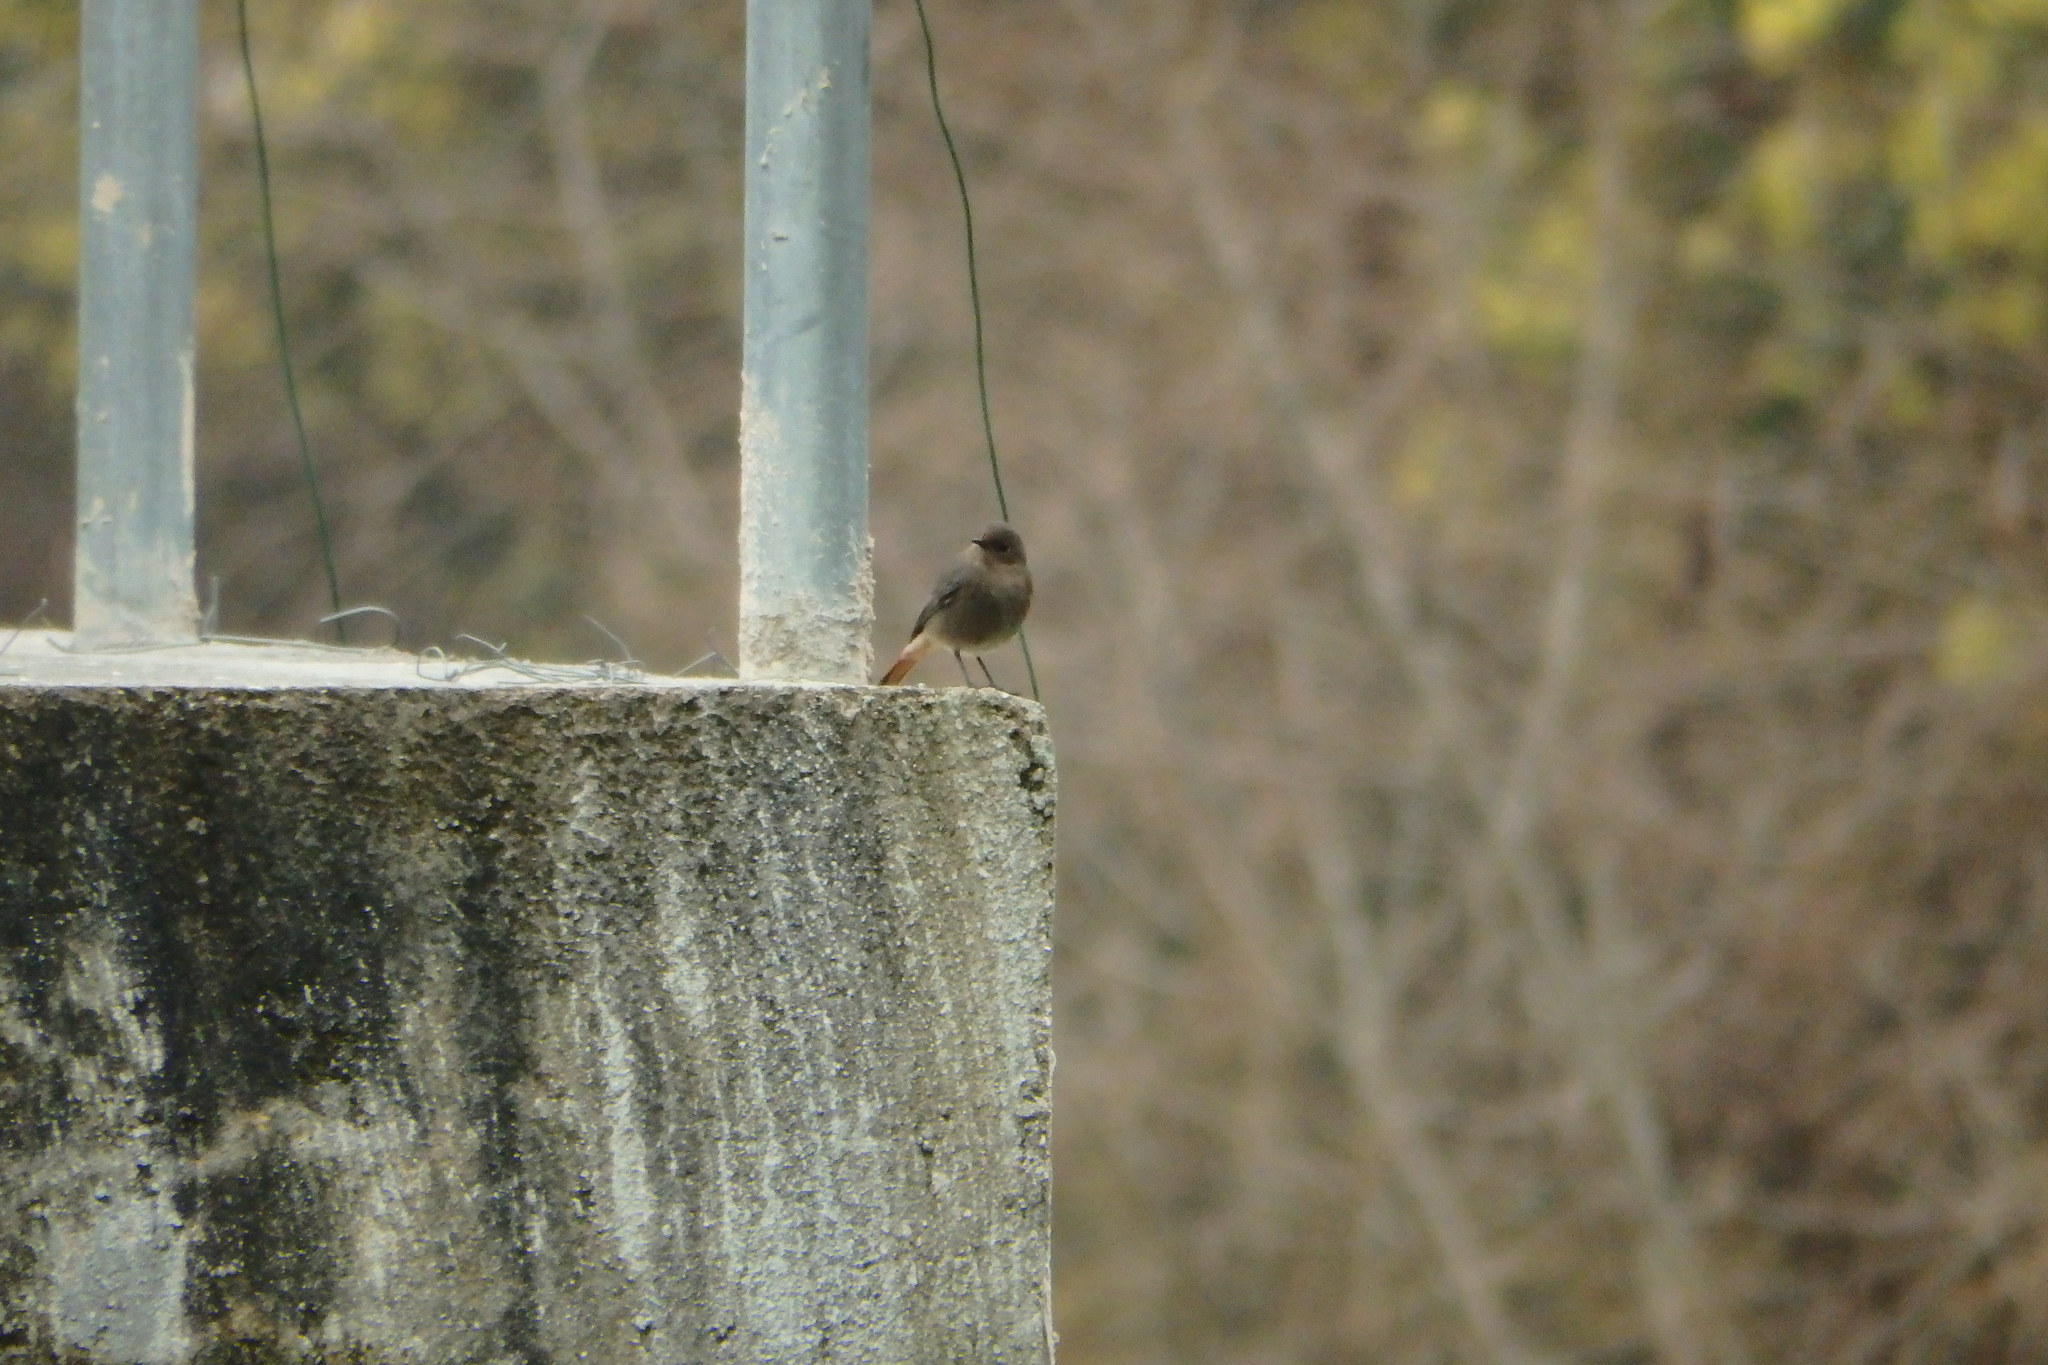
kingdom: Animalia
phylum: Chordata
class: Aves
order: Passeriformes
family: Muscicapidae
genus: Phoenicurus
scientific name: Phoenicurus ochruros
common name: Black redstart
